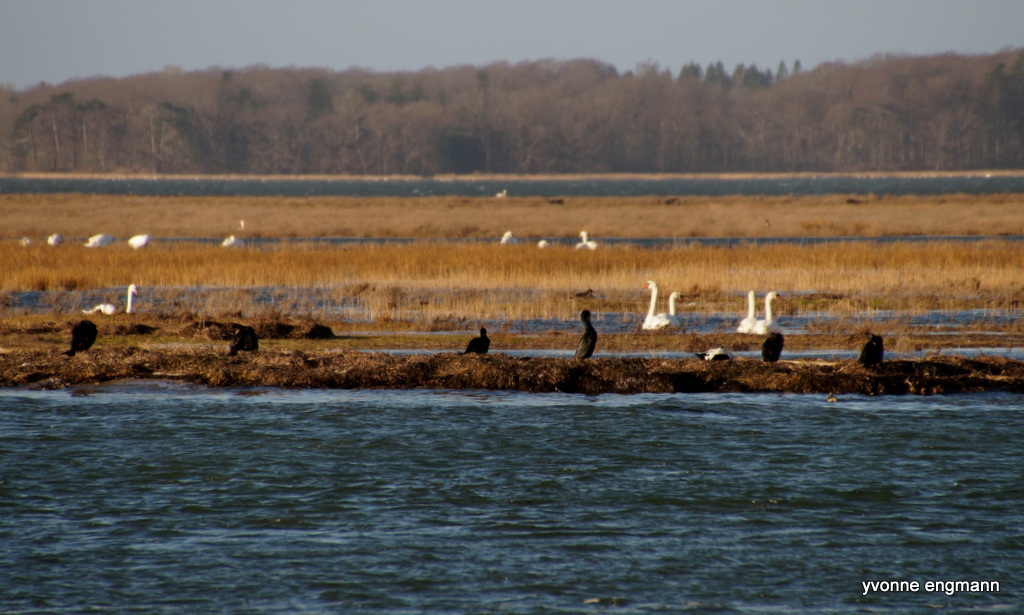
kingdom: Animalia
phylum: Chordata
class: Aves
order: Suliformes
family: Phalacrocoracidae
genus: Phalacrocorax
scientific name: Phalacrocorax carbo
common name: Great cormorant
